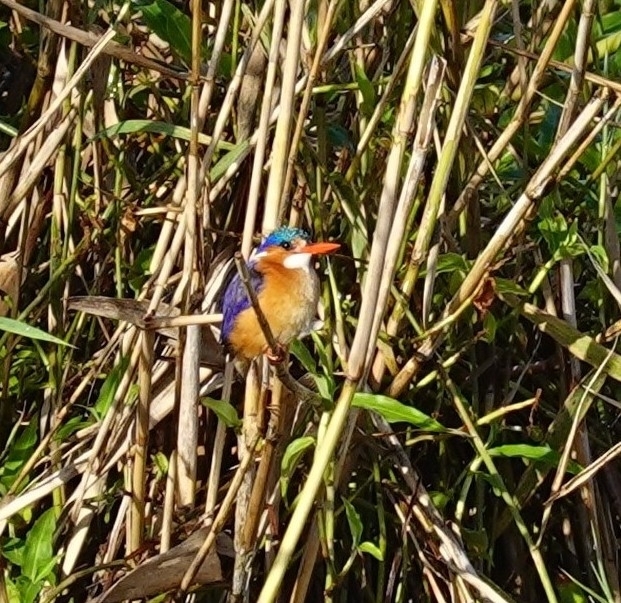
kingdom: Animalia
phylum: Chordata
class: Aves
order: Coraciiformes
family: Alcedinidae
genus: Corythornis
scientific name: Corythornis cristatus
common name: Malachite kingfisher
